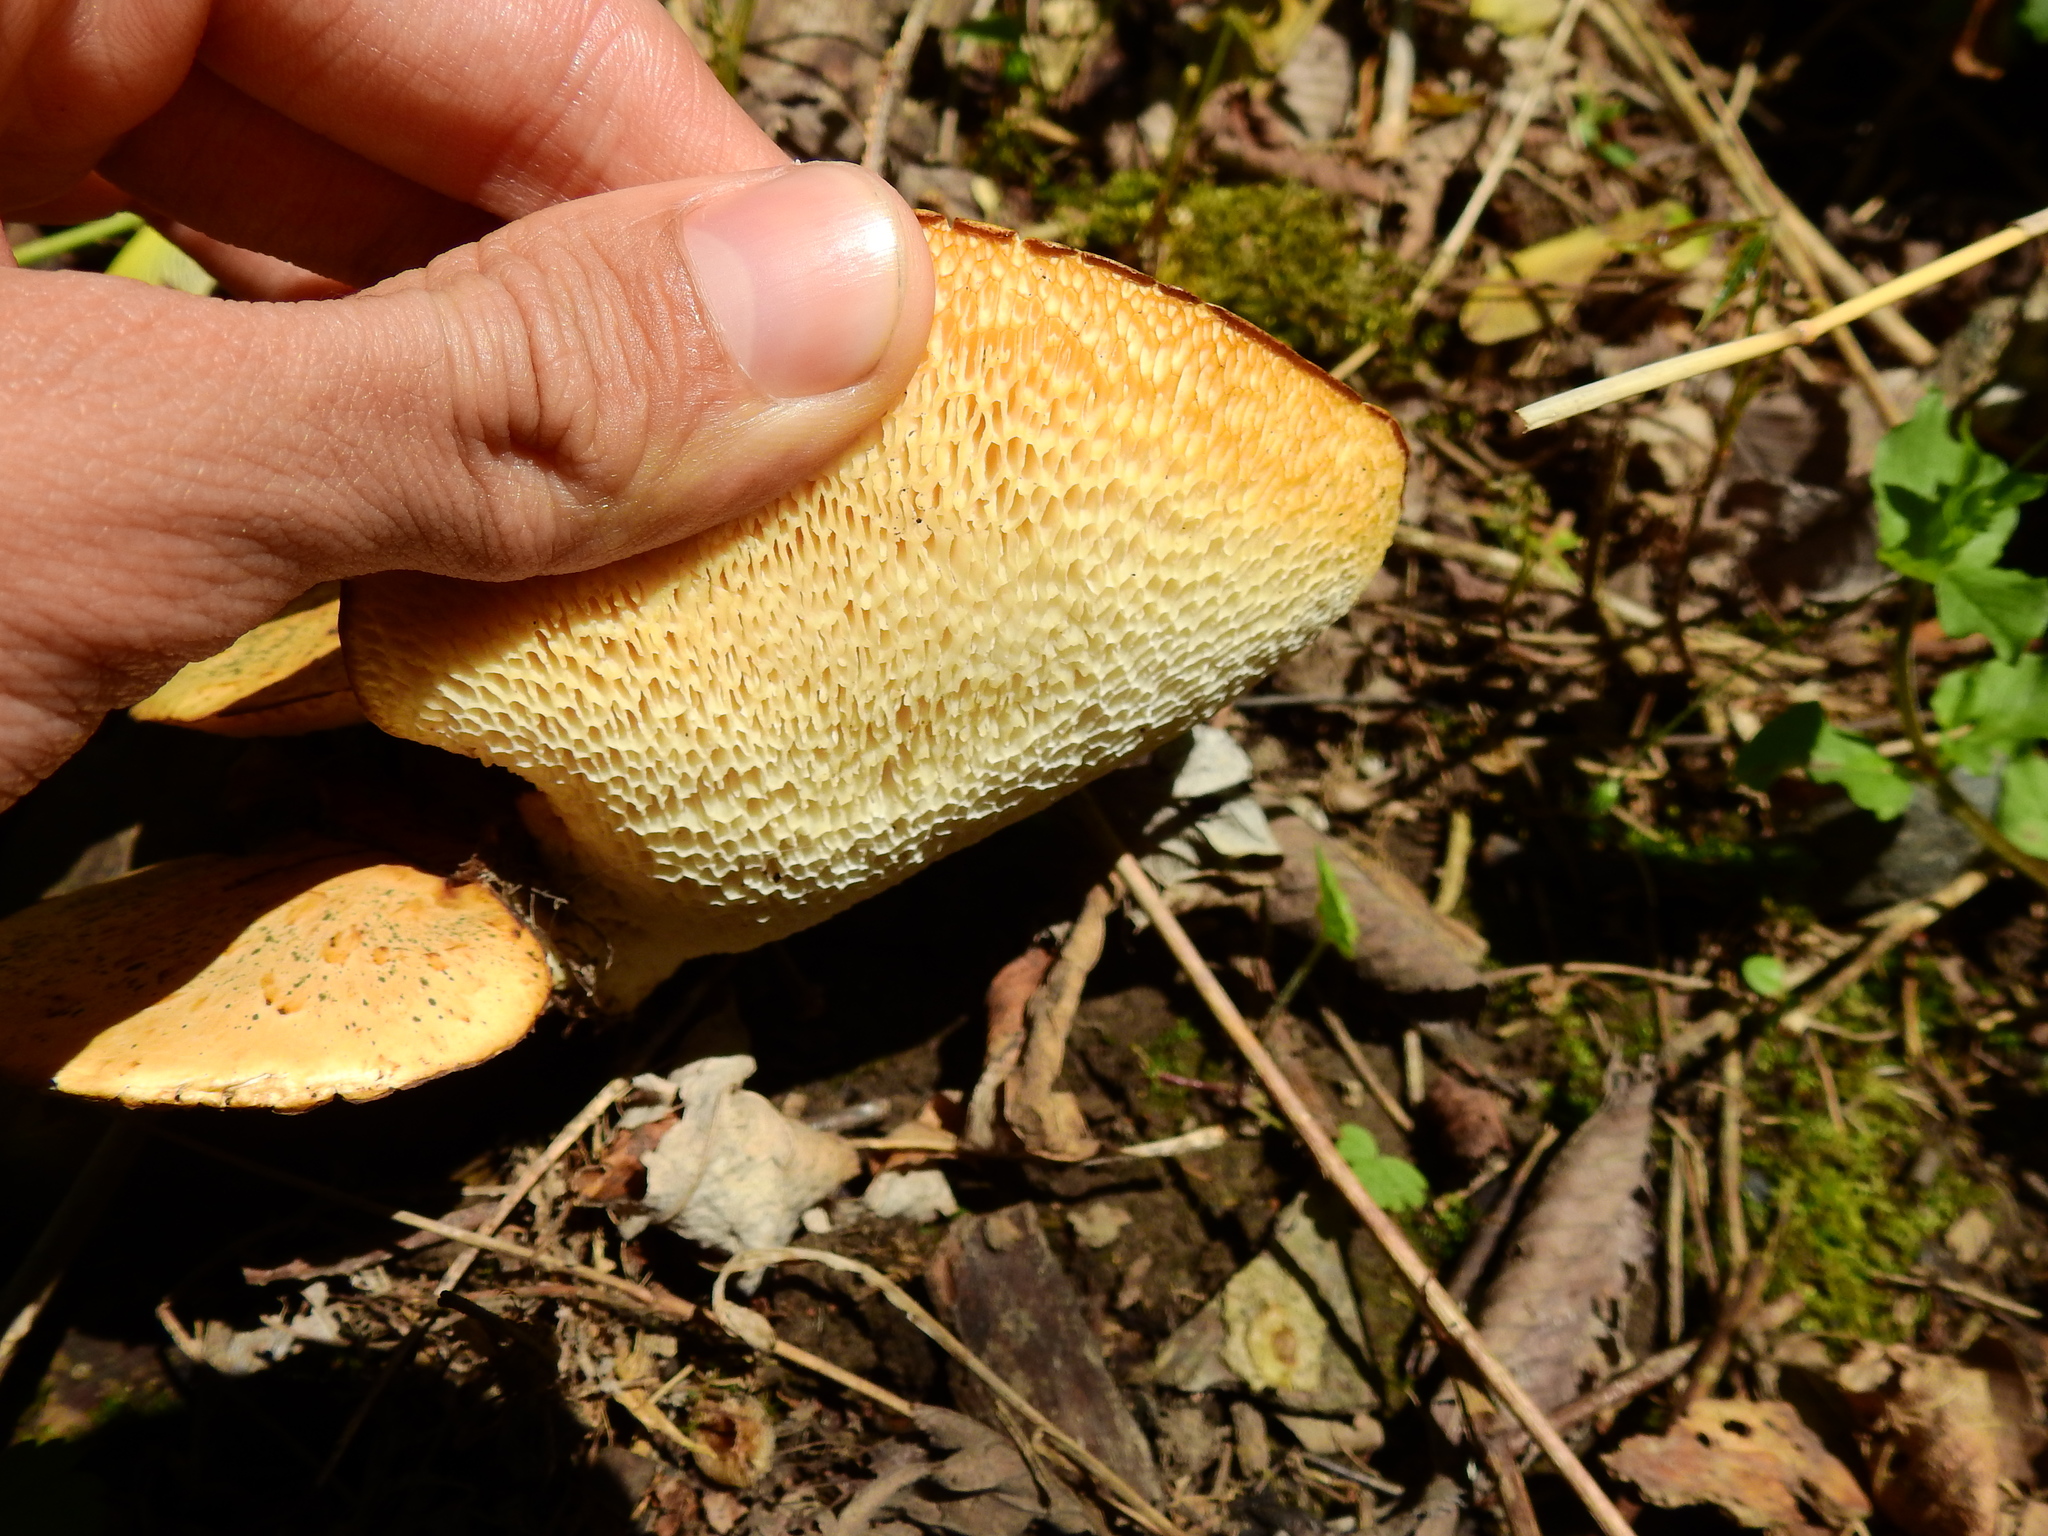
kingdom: Fungi
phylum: Basidiomycota
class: Agaricomycetes
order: Polyporales
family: Polyporaceae
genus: Cerioporus
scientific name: Cerioporus squamosus
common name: Dryad's saddle
